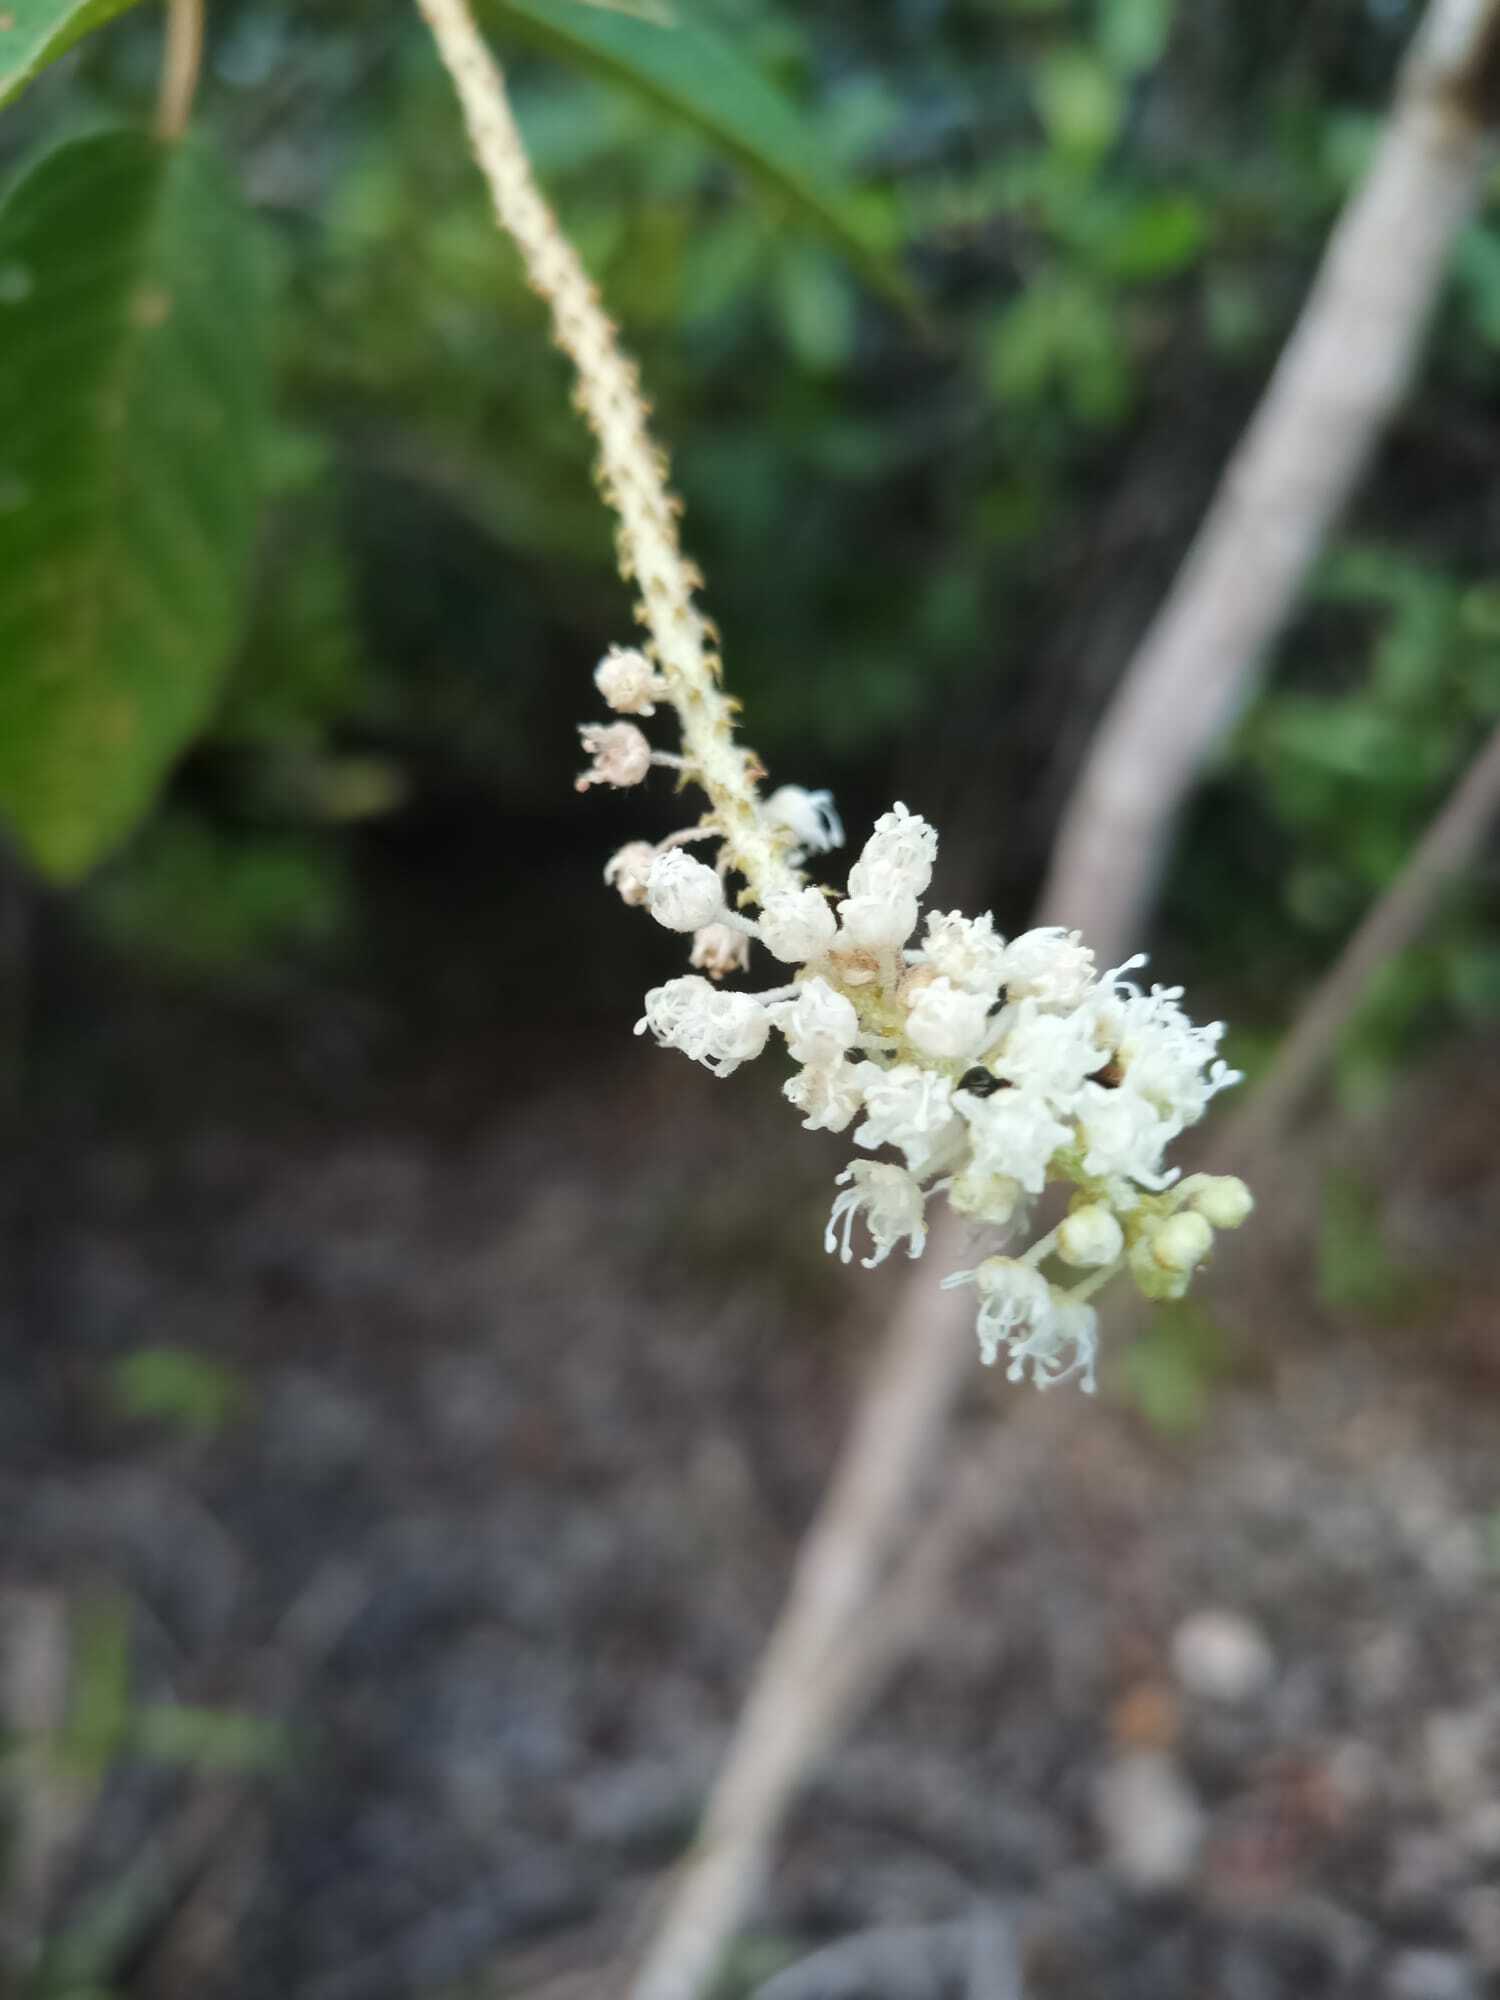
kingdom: Plantae
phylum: Tracheophyta
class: Magnoliopsida
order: Malpighiales
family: Euphorbiaceae
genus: Croton
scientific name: Croton hostmannii
